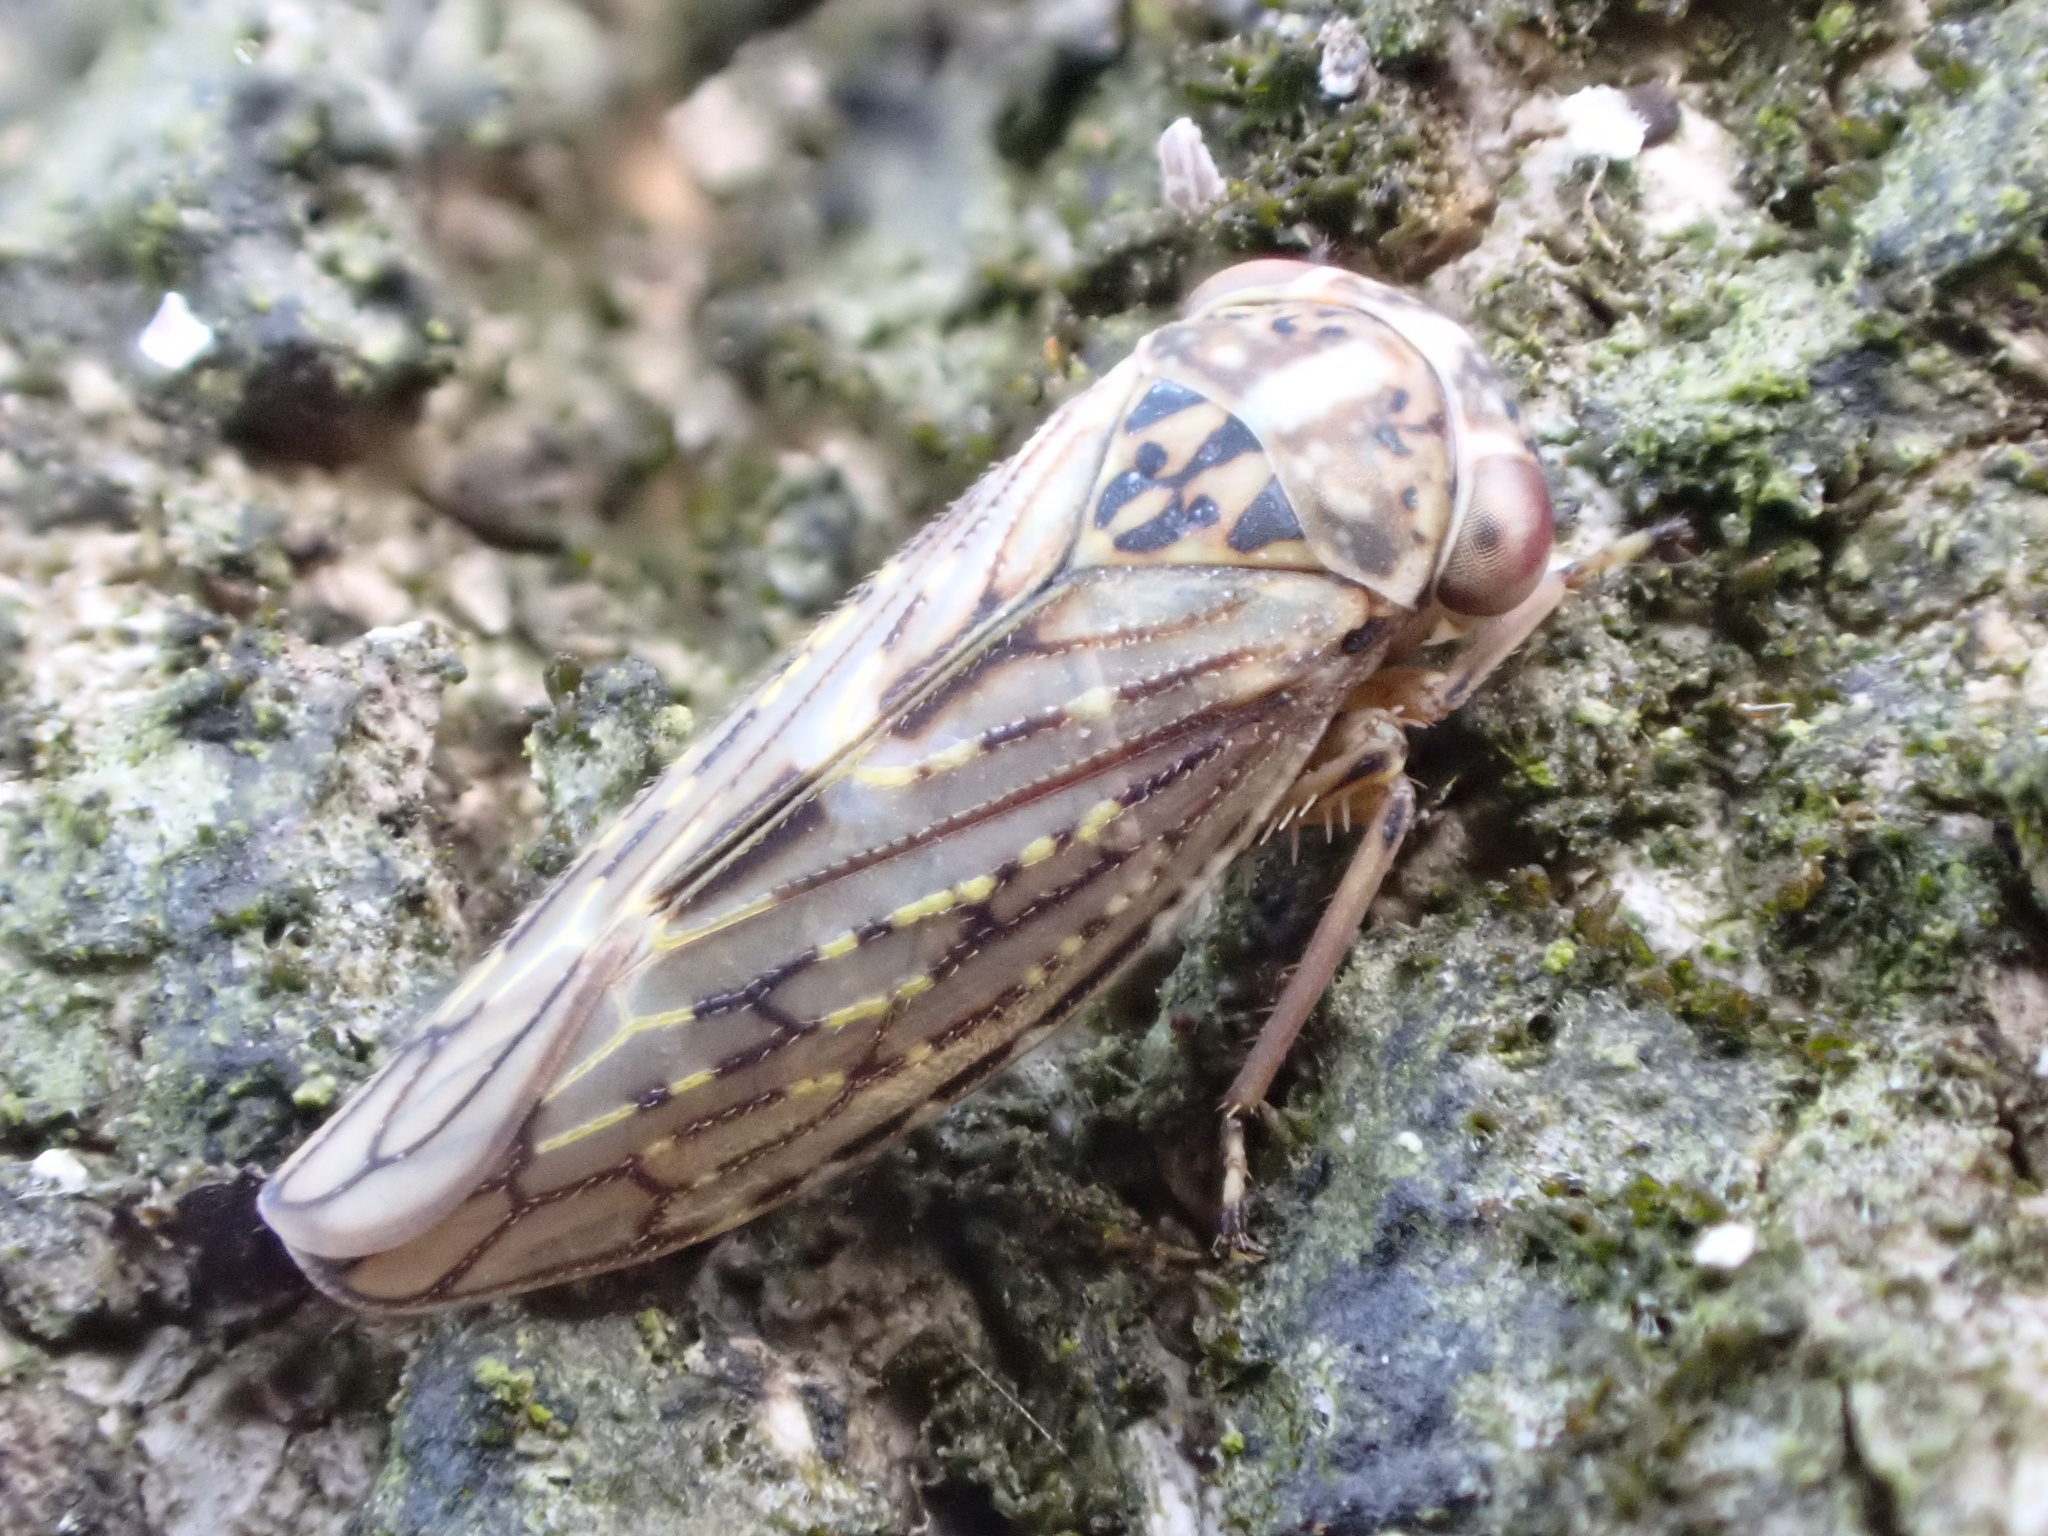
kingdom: Animalia
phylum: Arthropoda
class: Insecta
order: Hemiptera
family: Cicadellidae
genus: Idiocerus
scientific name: Idiocerus herrichii
